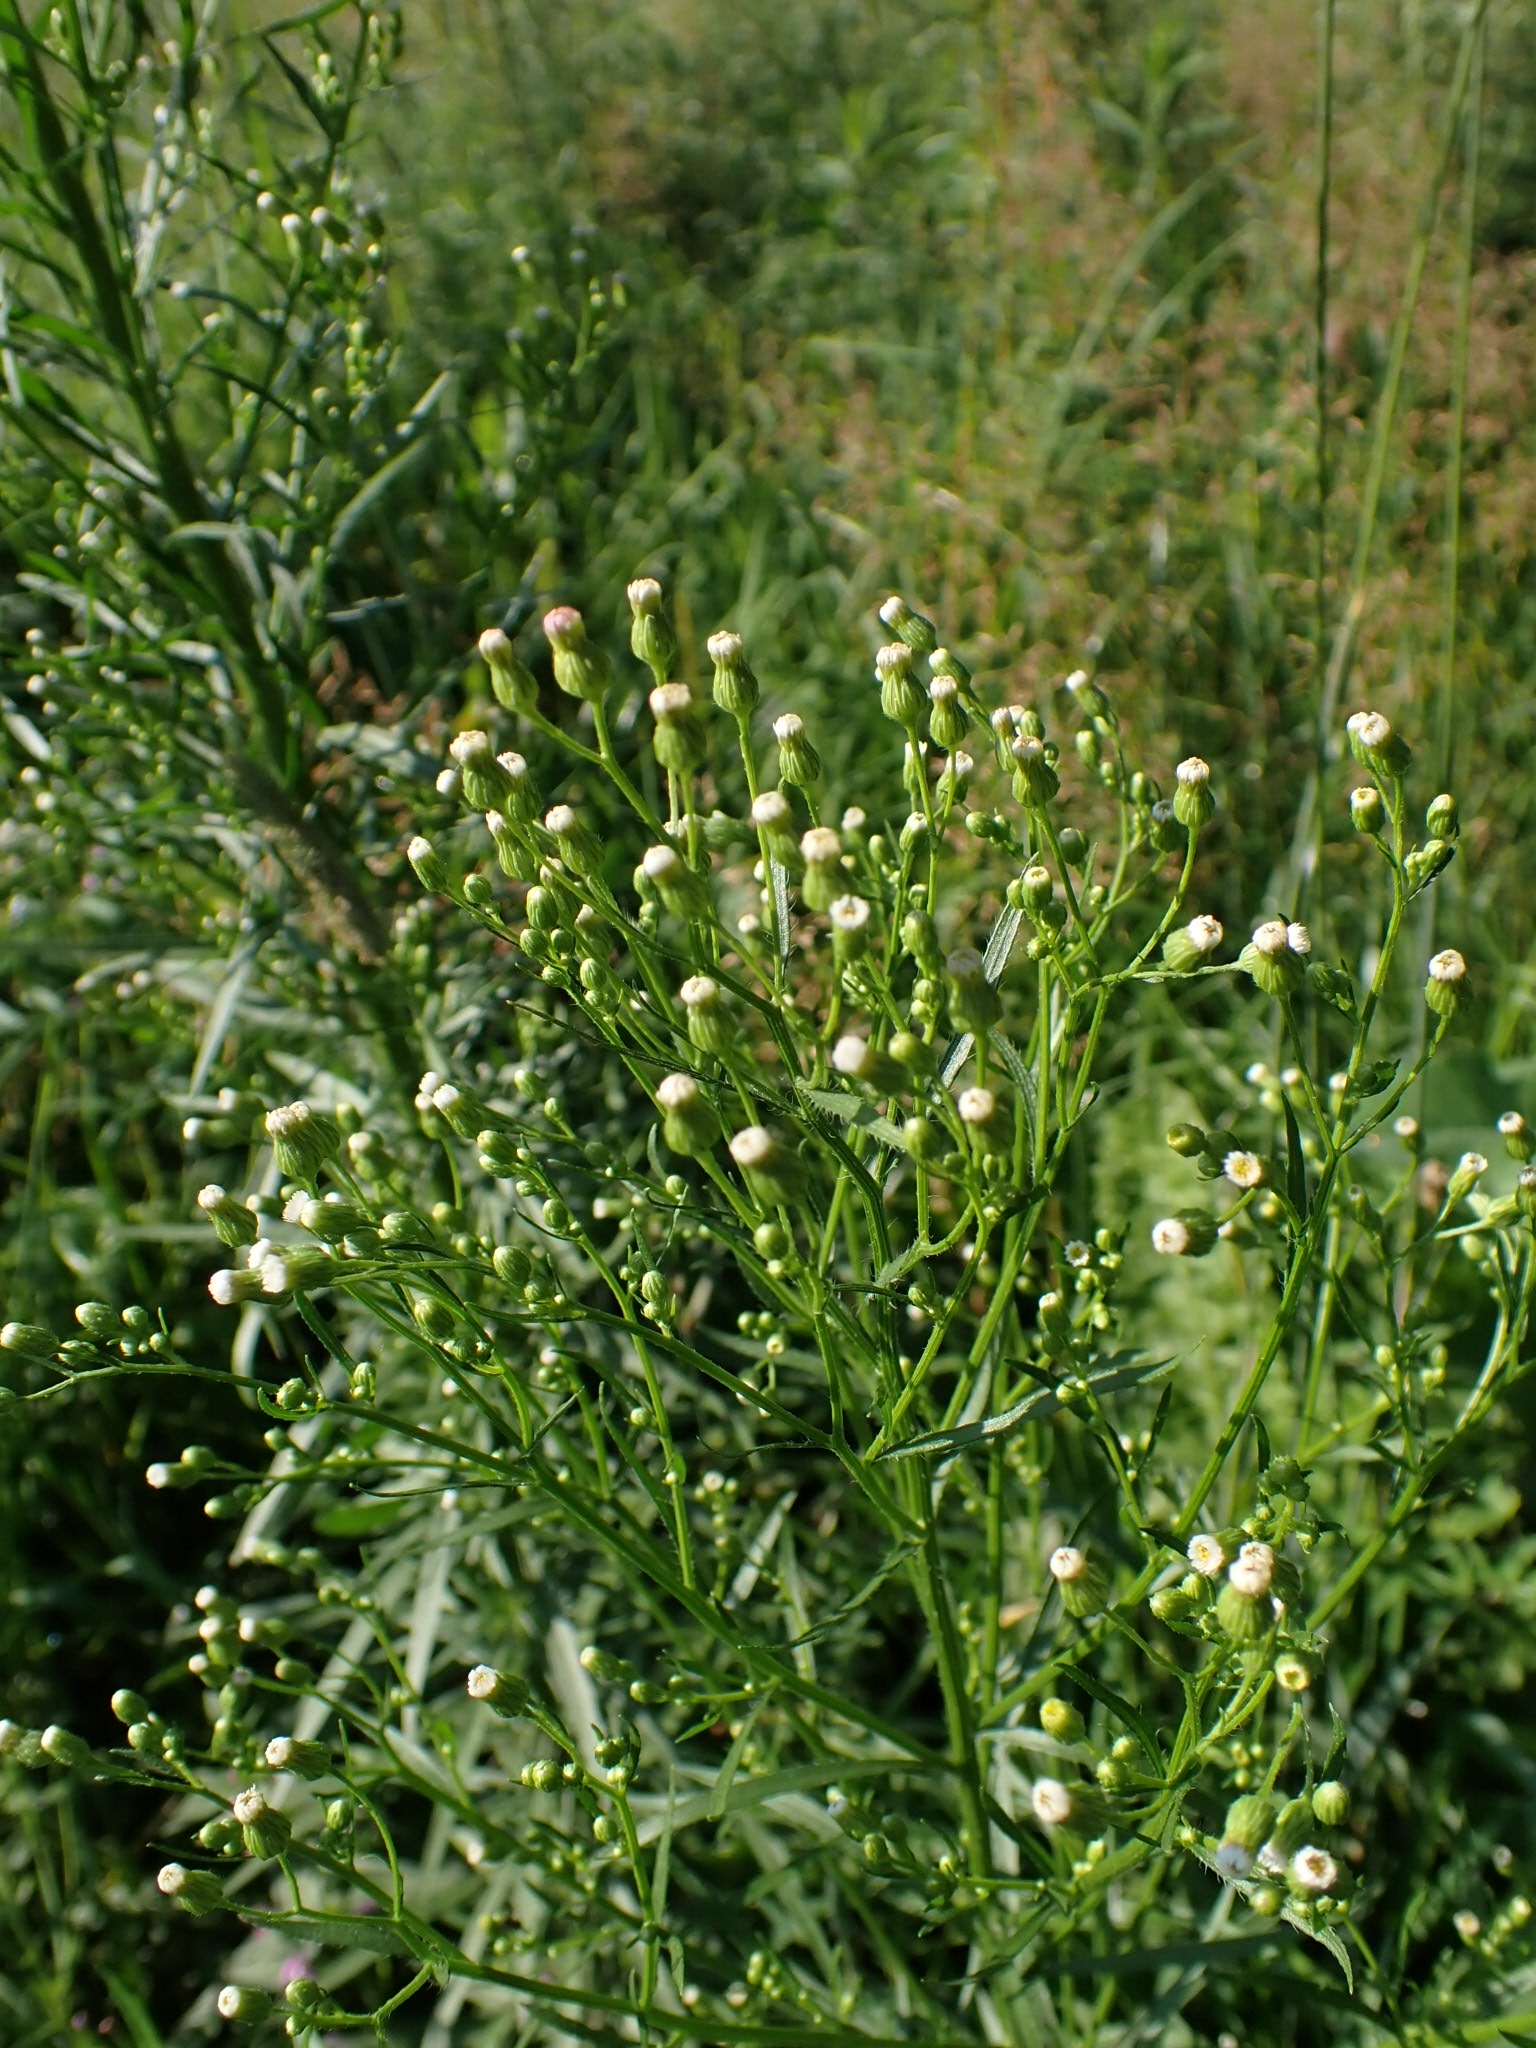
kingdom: Plantae
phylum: Tracheophyta
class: Magnoliopsida
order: Asterales
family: Asteraceae
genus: Erigeron
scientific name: Erigeron canadensis
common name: Canadian fleabane
